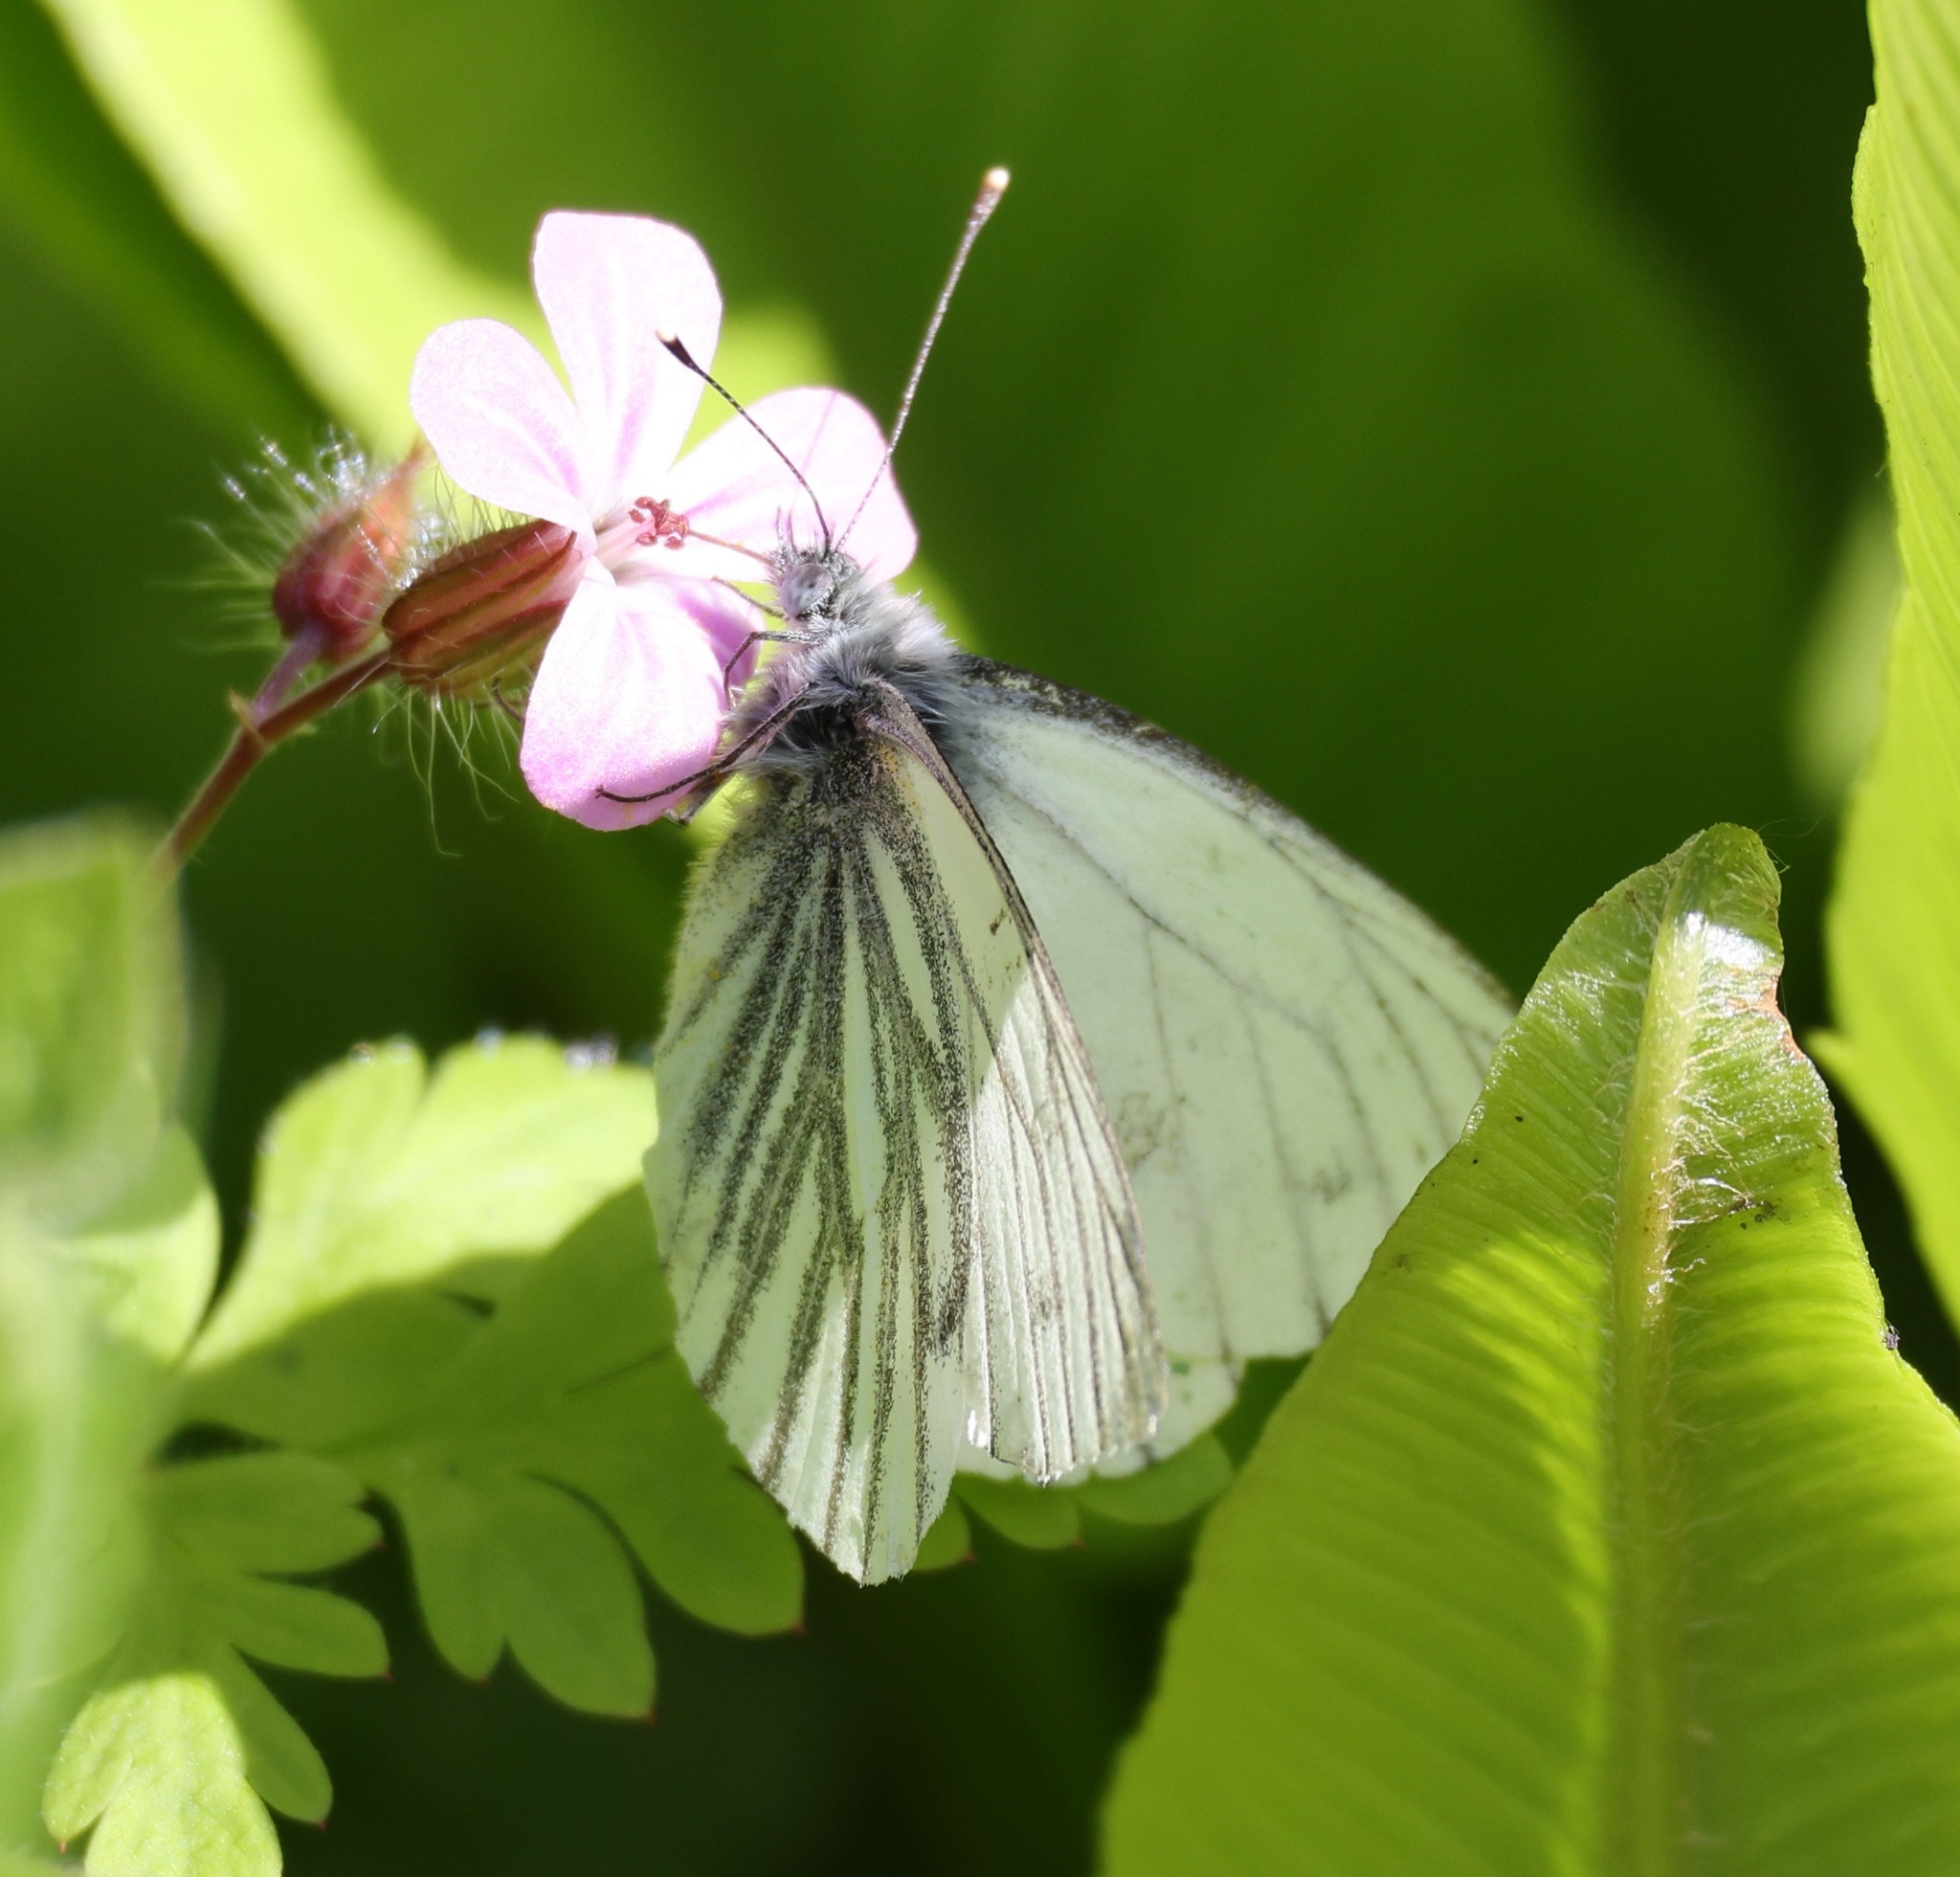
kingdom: Animalia
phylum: Arthropoda
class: Insecta
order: Lepidoptera
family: Pieridae
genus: Pieris
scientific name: Pieris napi
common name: Green-veined white
